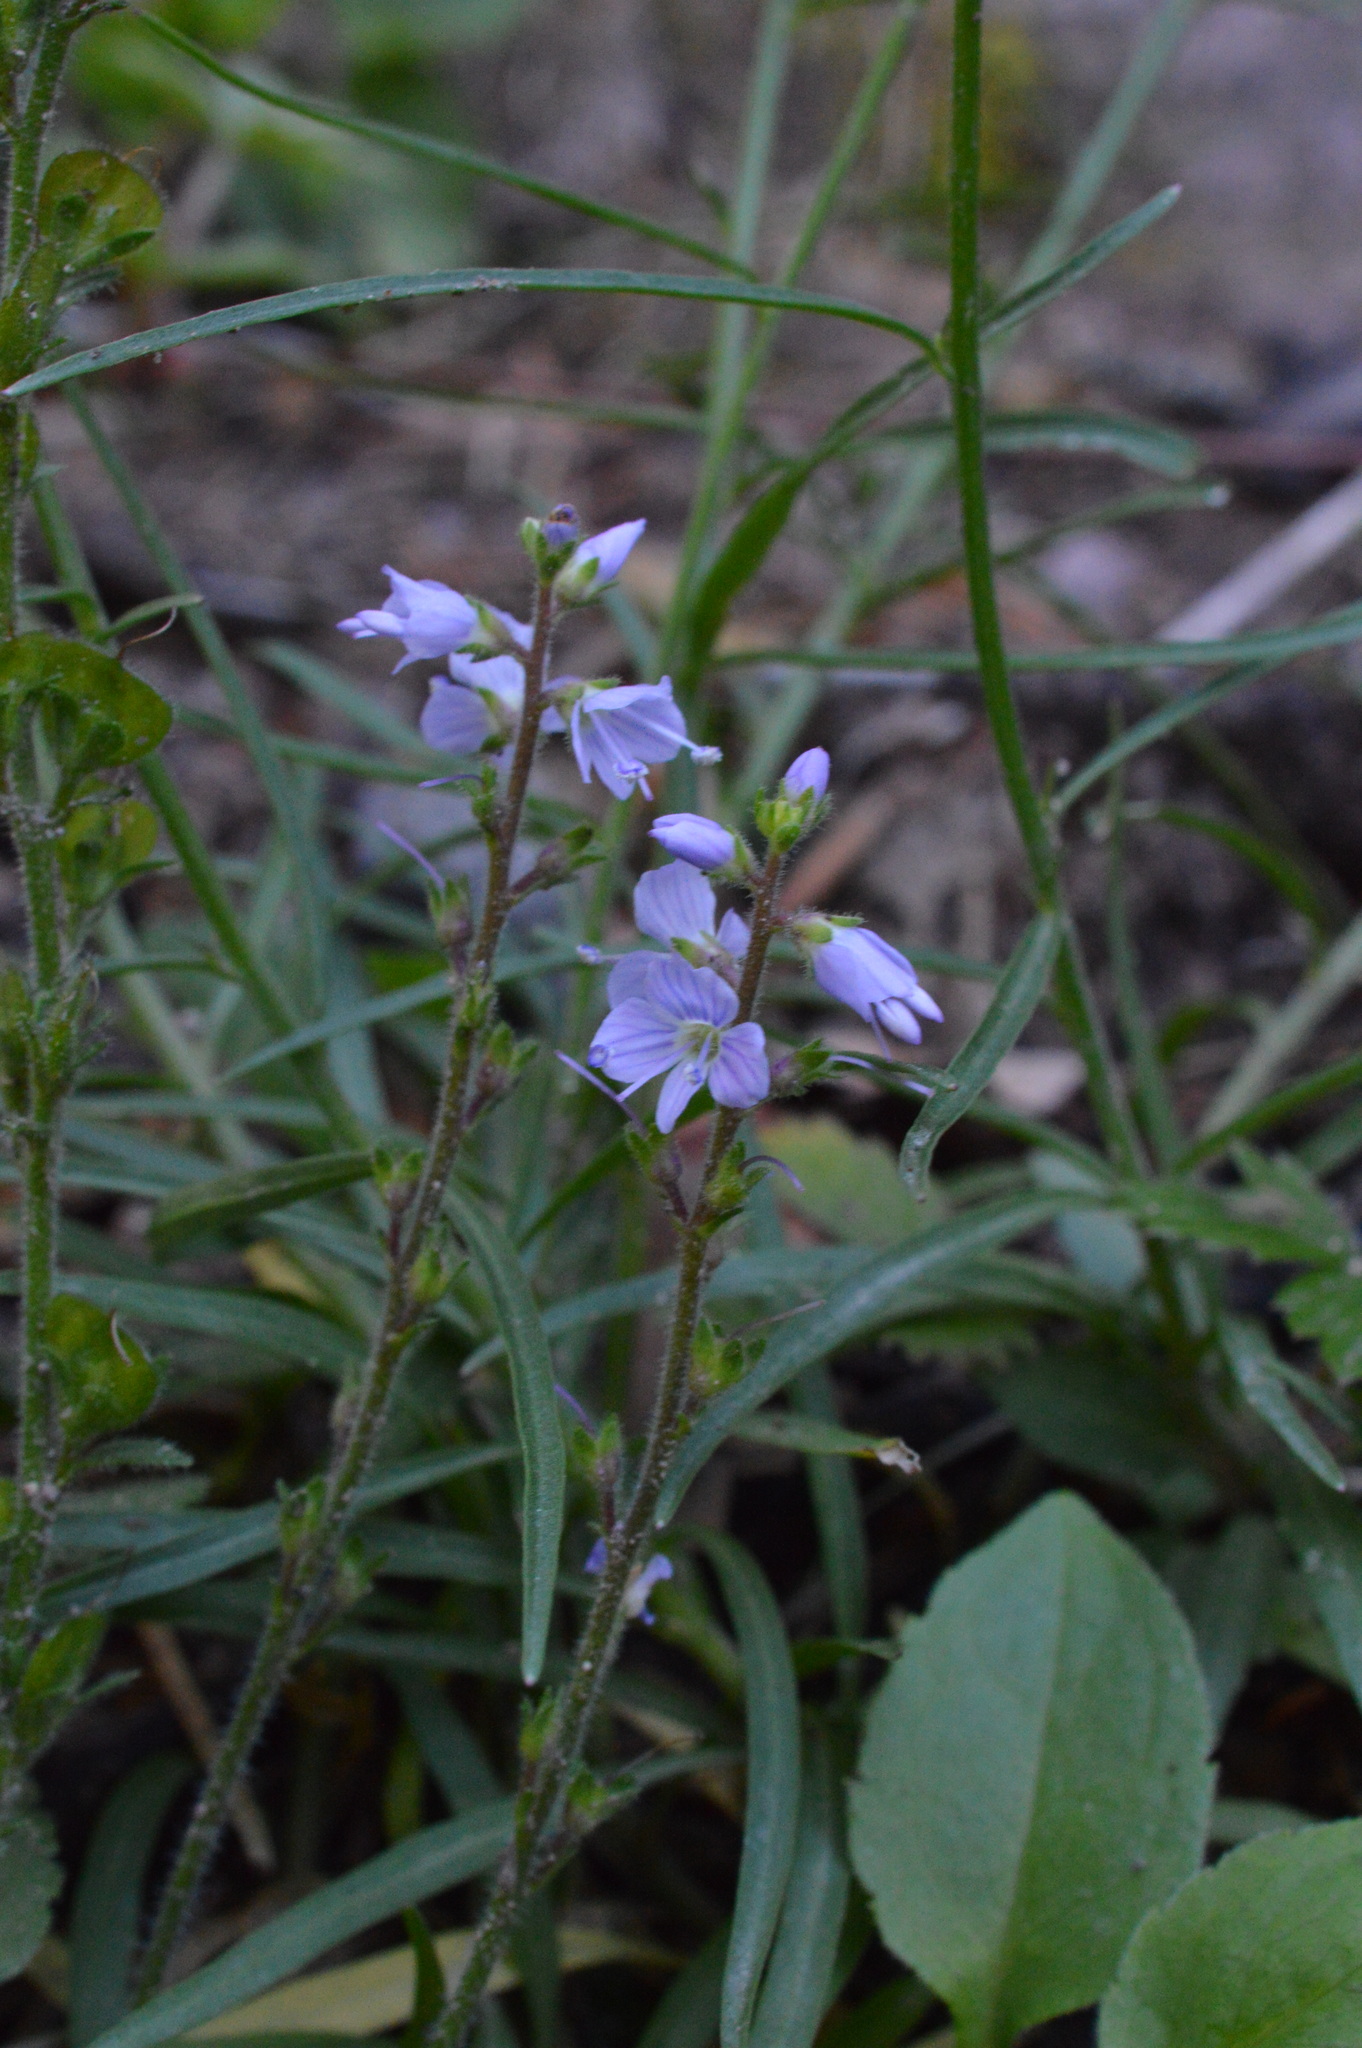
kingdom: Plantae
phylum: Tracheophyta
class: Magnoliopsida
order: Lamiales
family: Plantaginaceae
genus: Veronica
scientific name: Veronica officinalis
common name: Common speedwell
